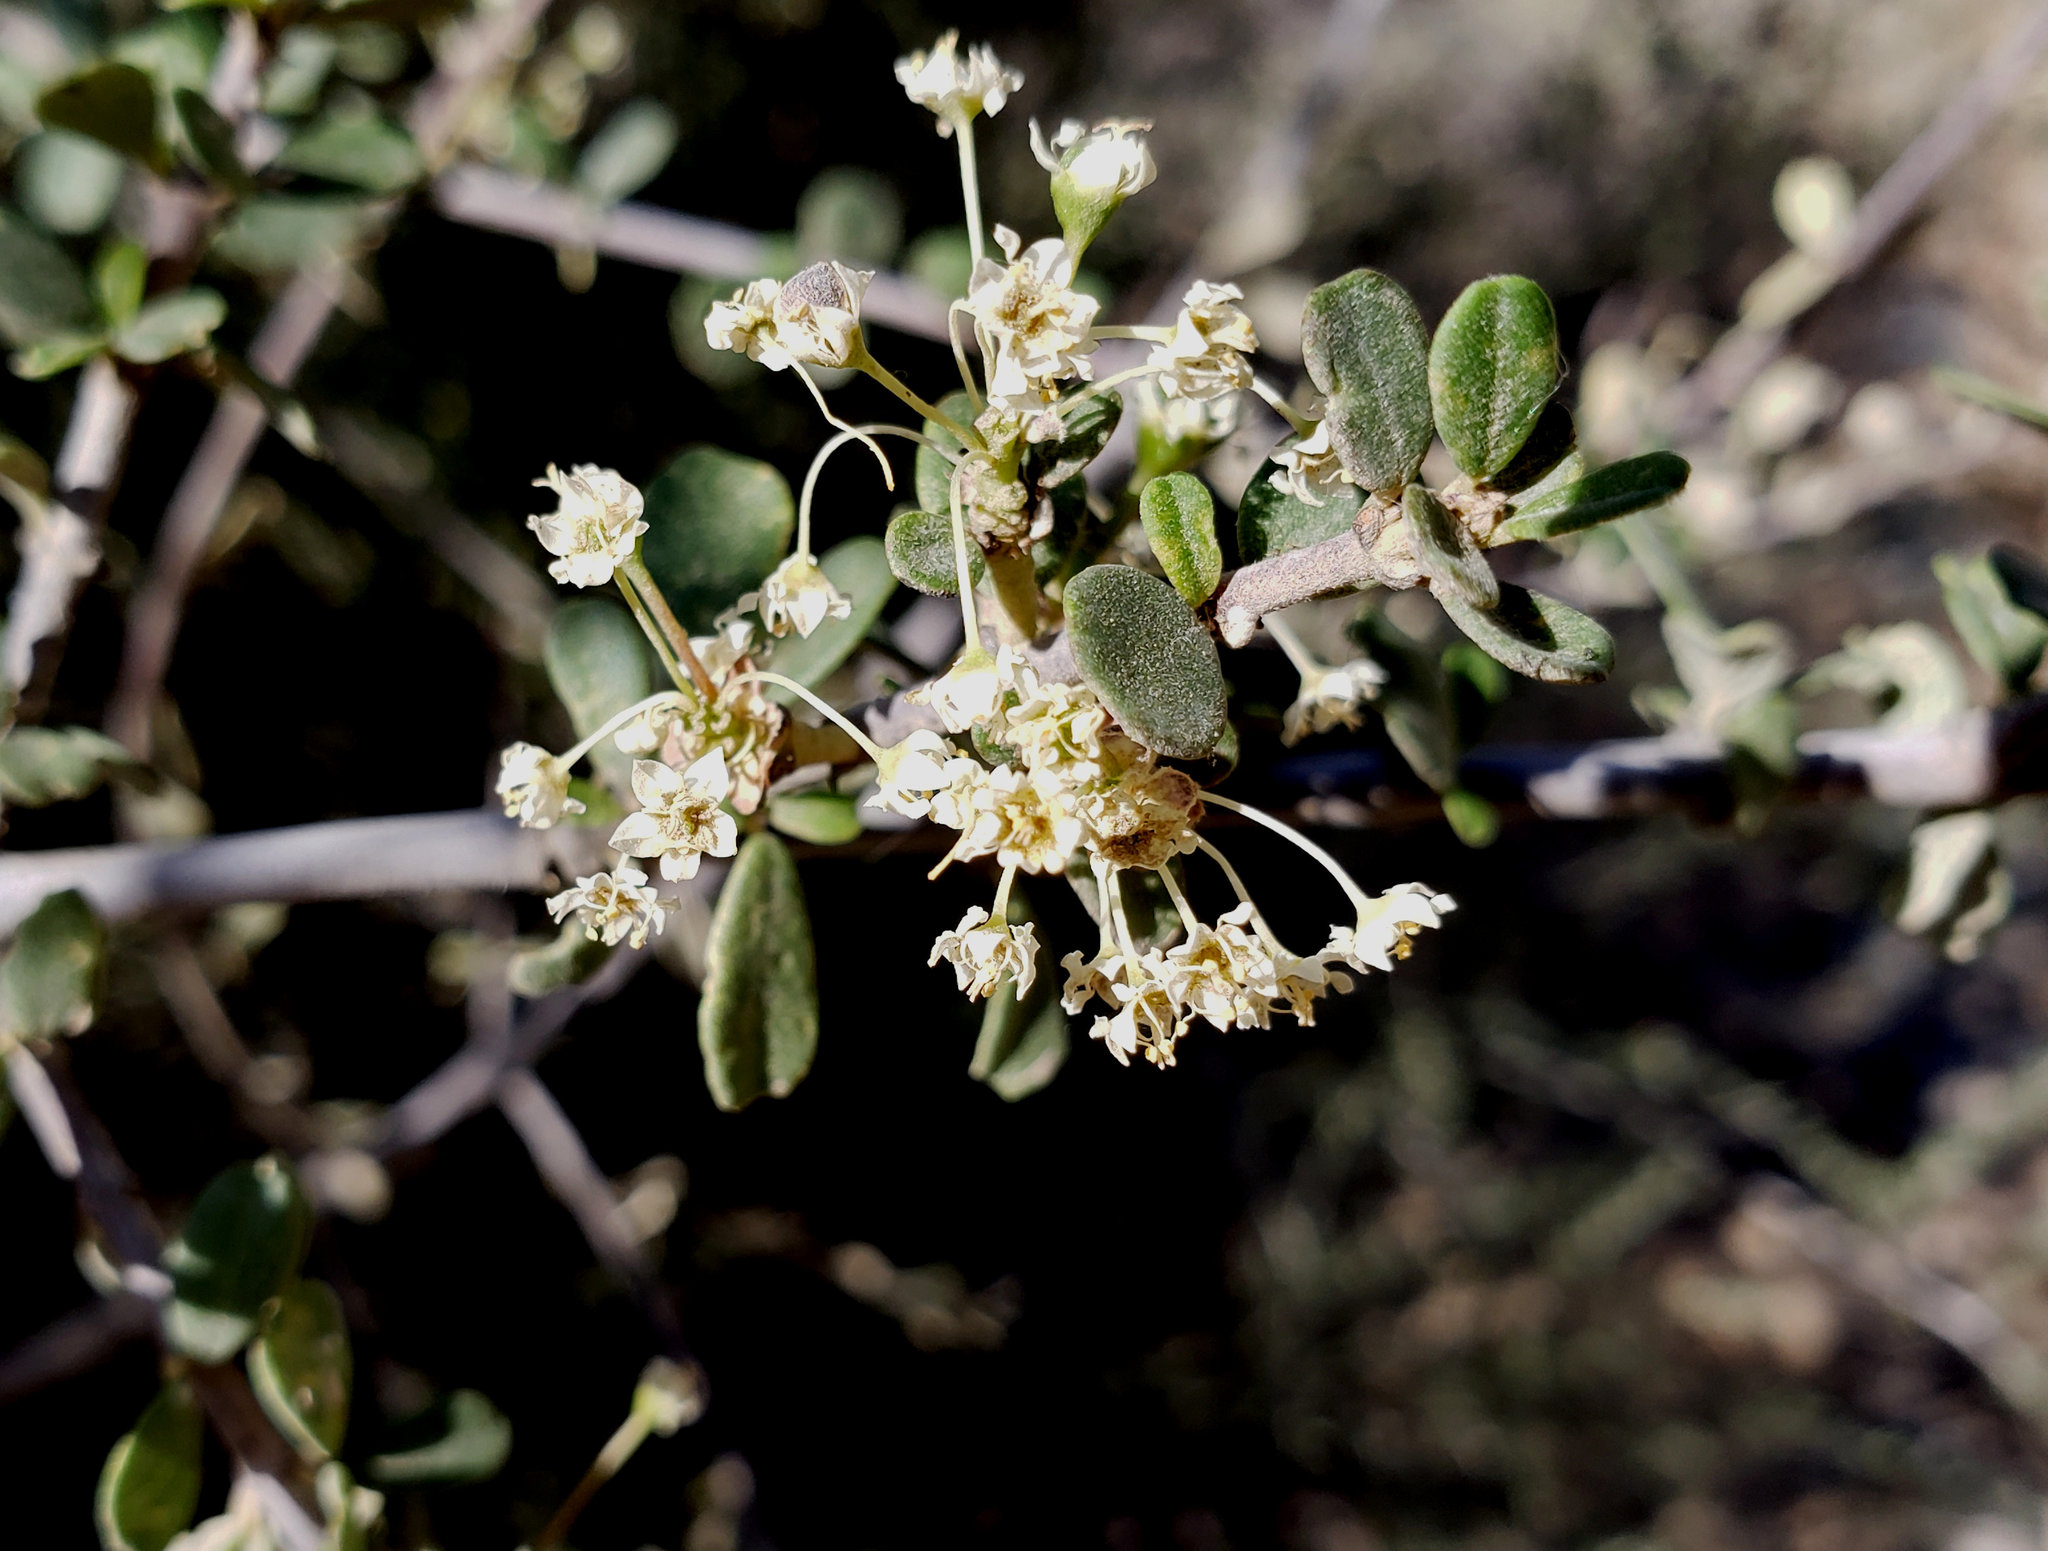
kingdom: Plantae
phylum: Tracheophyta
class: Magnoliopsida
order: Rosales
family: Rhamnaceae
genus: Ceanothus
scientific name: Ceanothus cuneatus
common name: Cuneate ceanothus
